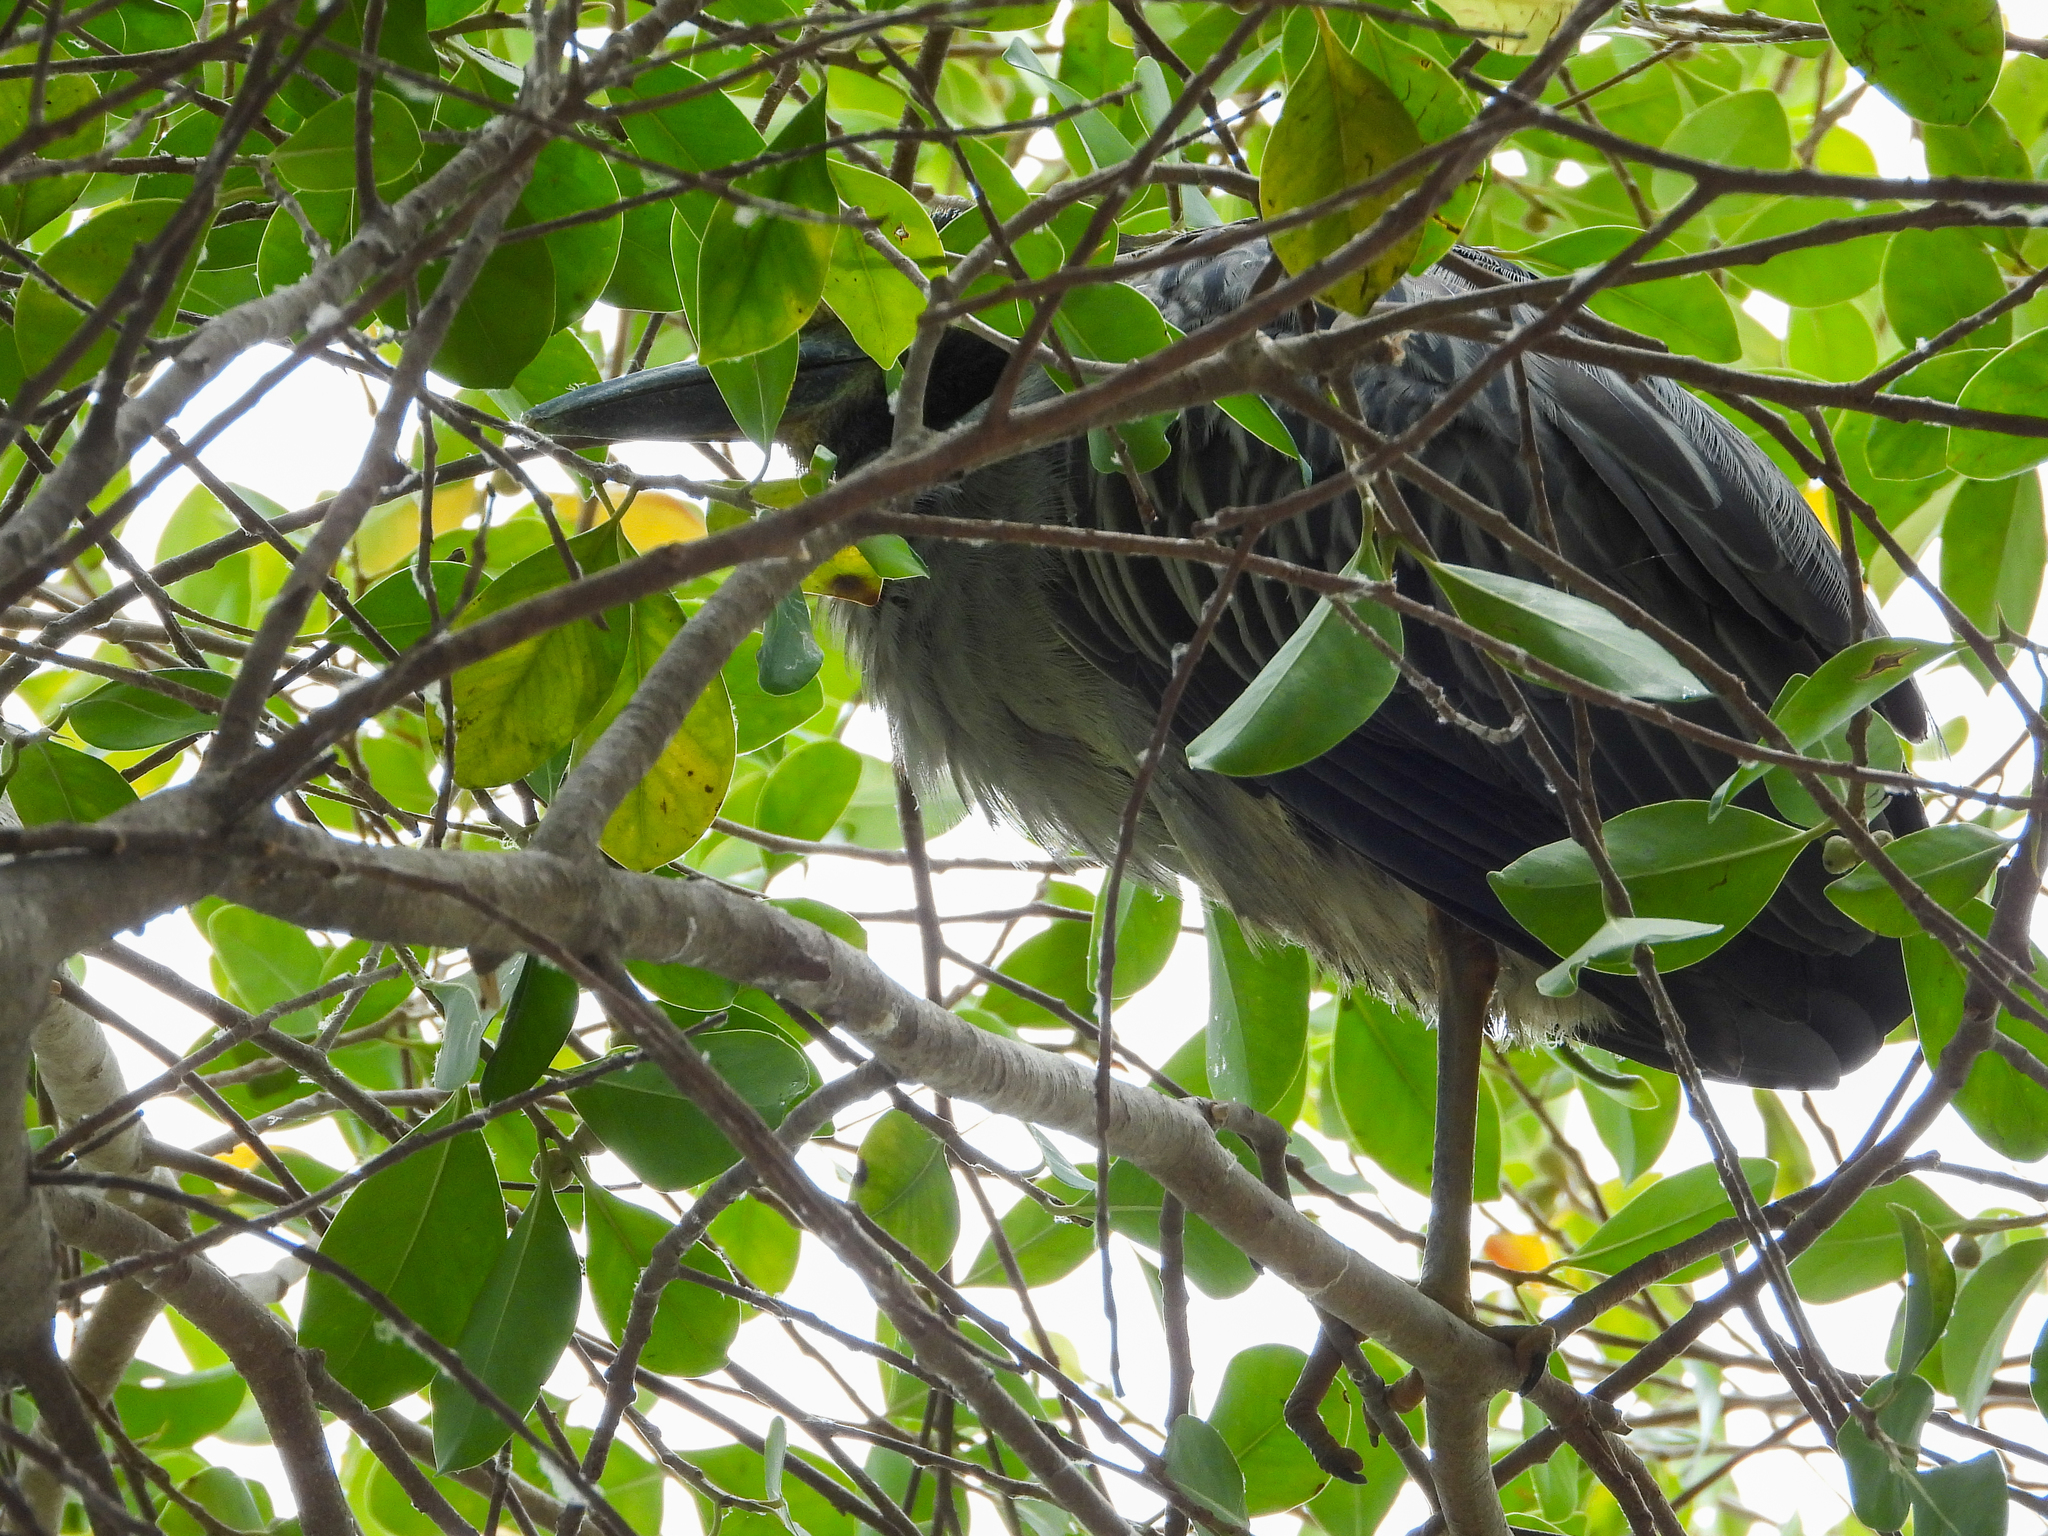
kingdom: Animalia
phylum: Chordata
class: Aves
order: Pelecaniformes
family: Ardeidae
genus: Nyctanassa
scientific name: Nyctanassa violacea
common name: Yellow-crowned night heron
